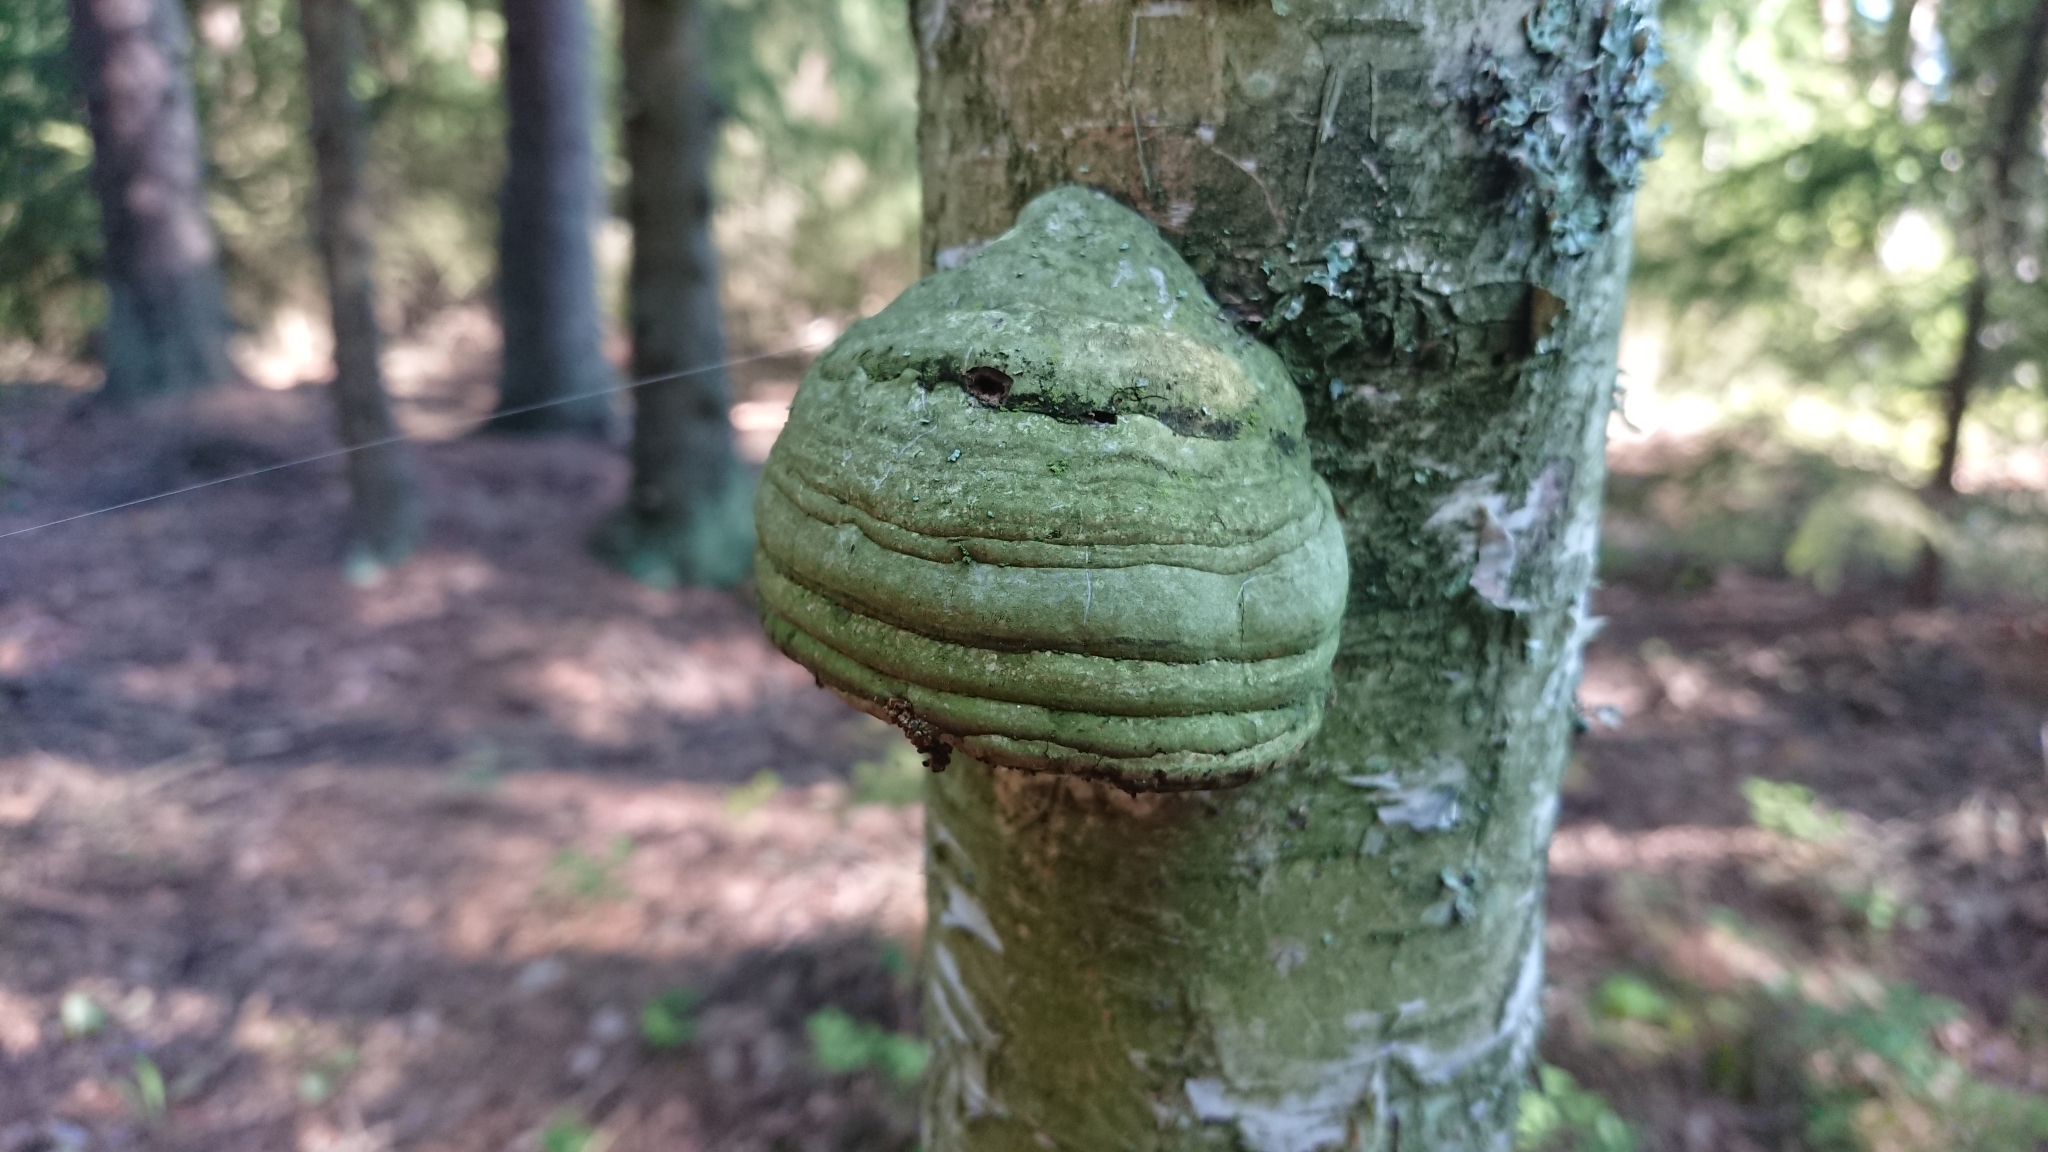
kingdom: Fungi
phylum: Basidiomycota
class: Agaricomycetes
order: Polyporales
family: Polyporaceae
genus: Fomes
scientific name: Fomes fomentarius
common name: Hoof fungus
